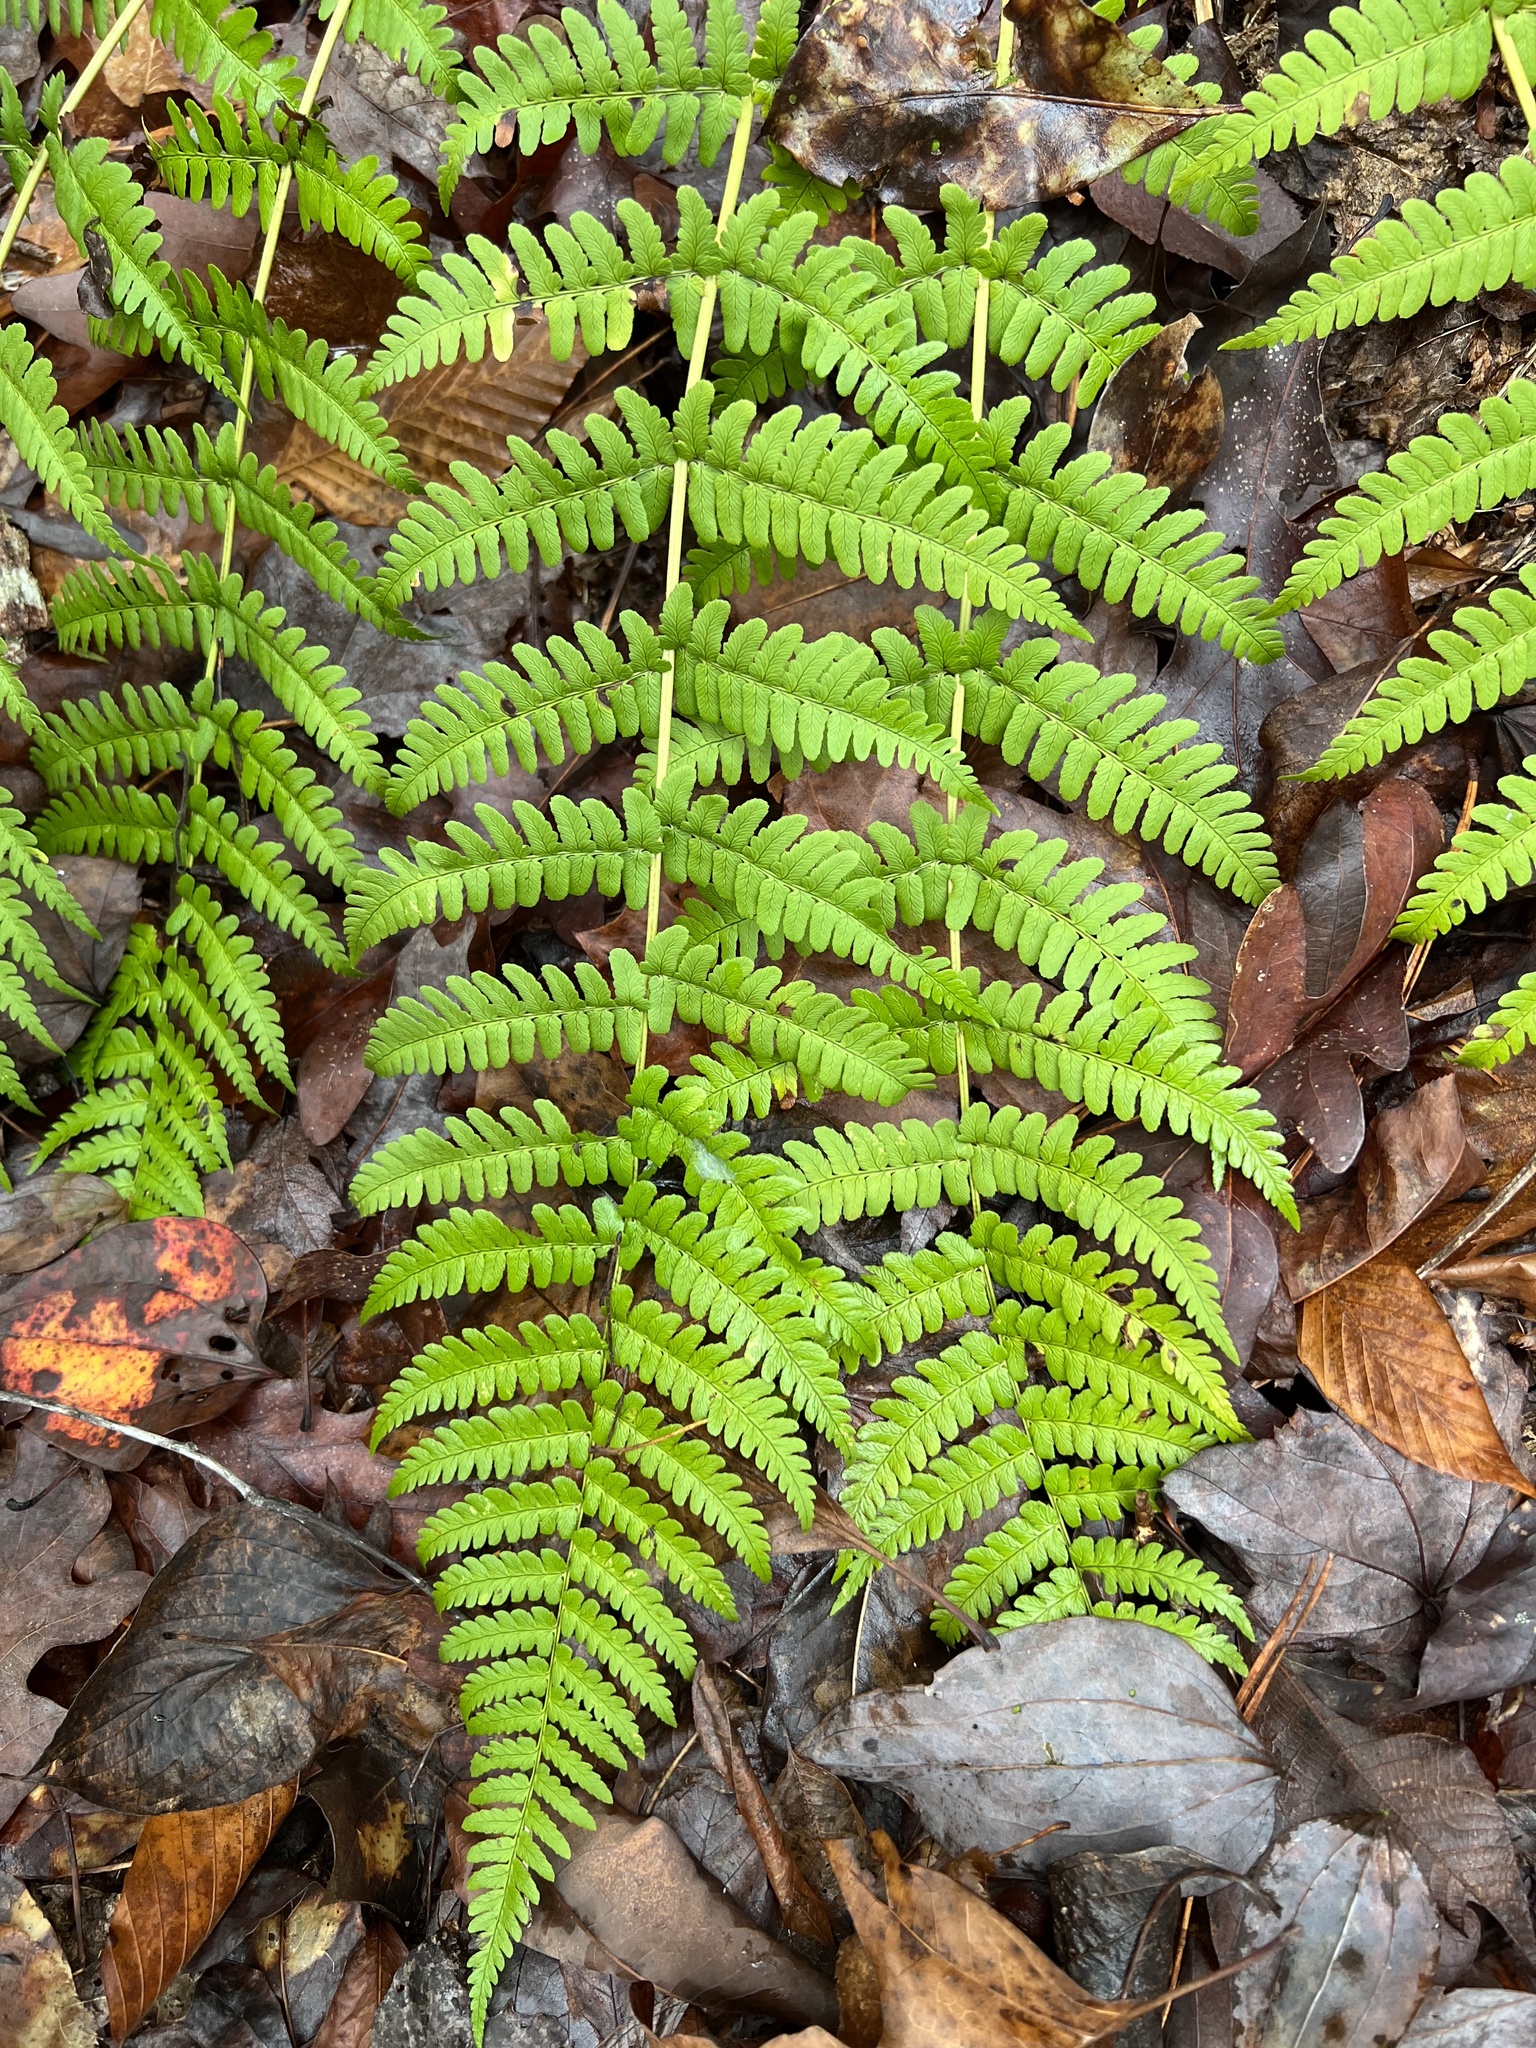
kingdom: Plantae
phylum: Tracheophyta
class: Magnoliopsida
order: Proteales
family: Platanaceae
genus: Platanus
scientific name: Platanus occidentalis
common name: American sycamore
